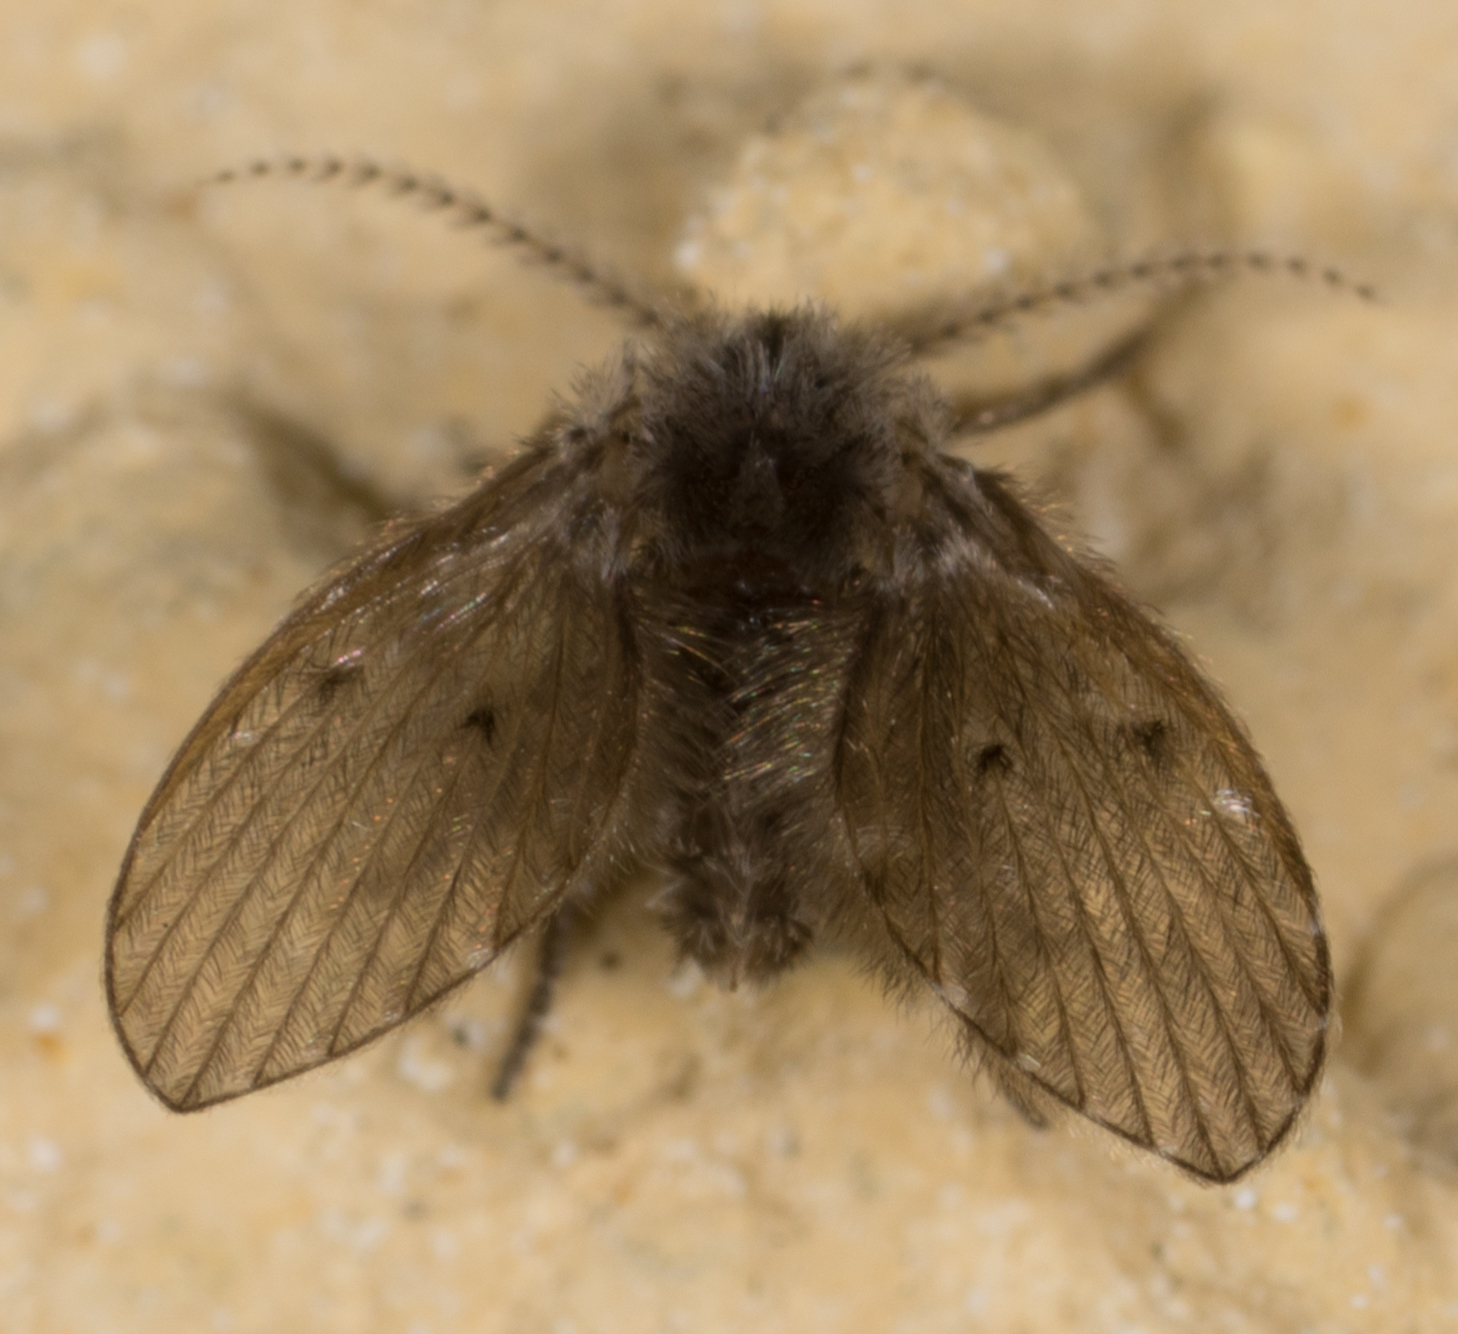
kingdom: Animalia
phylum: Arthropoda
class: Insecta
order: Diptera
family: Psychodidae
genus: Clogmia
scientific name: Clogmia albipunctatus
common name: White-spotted moth fly
